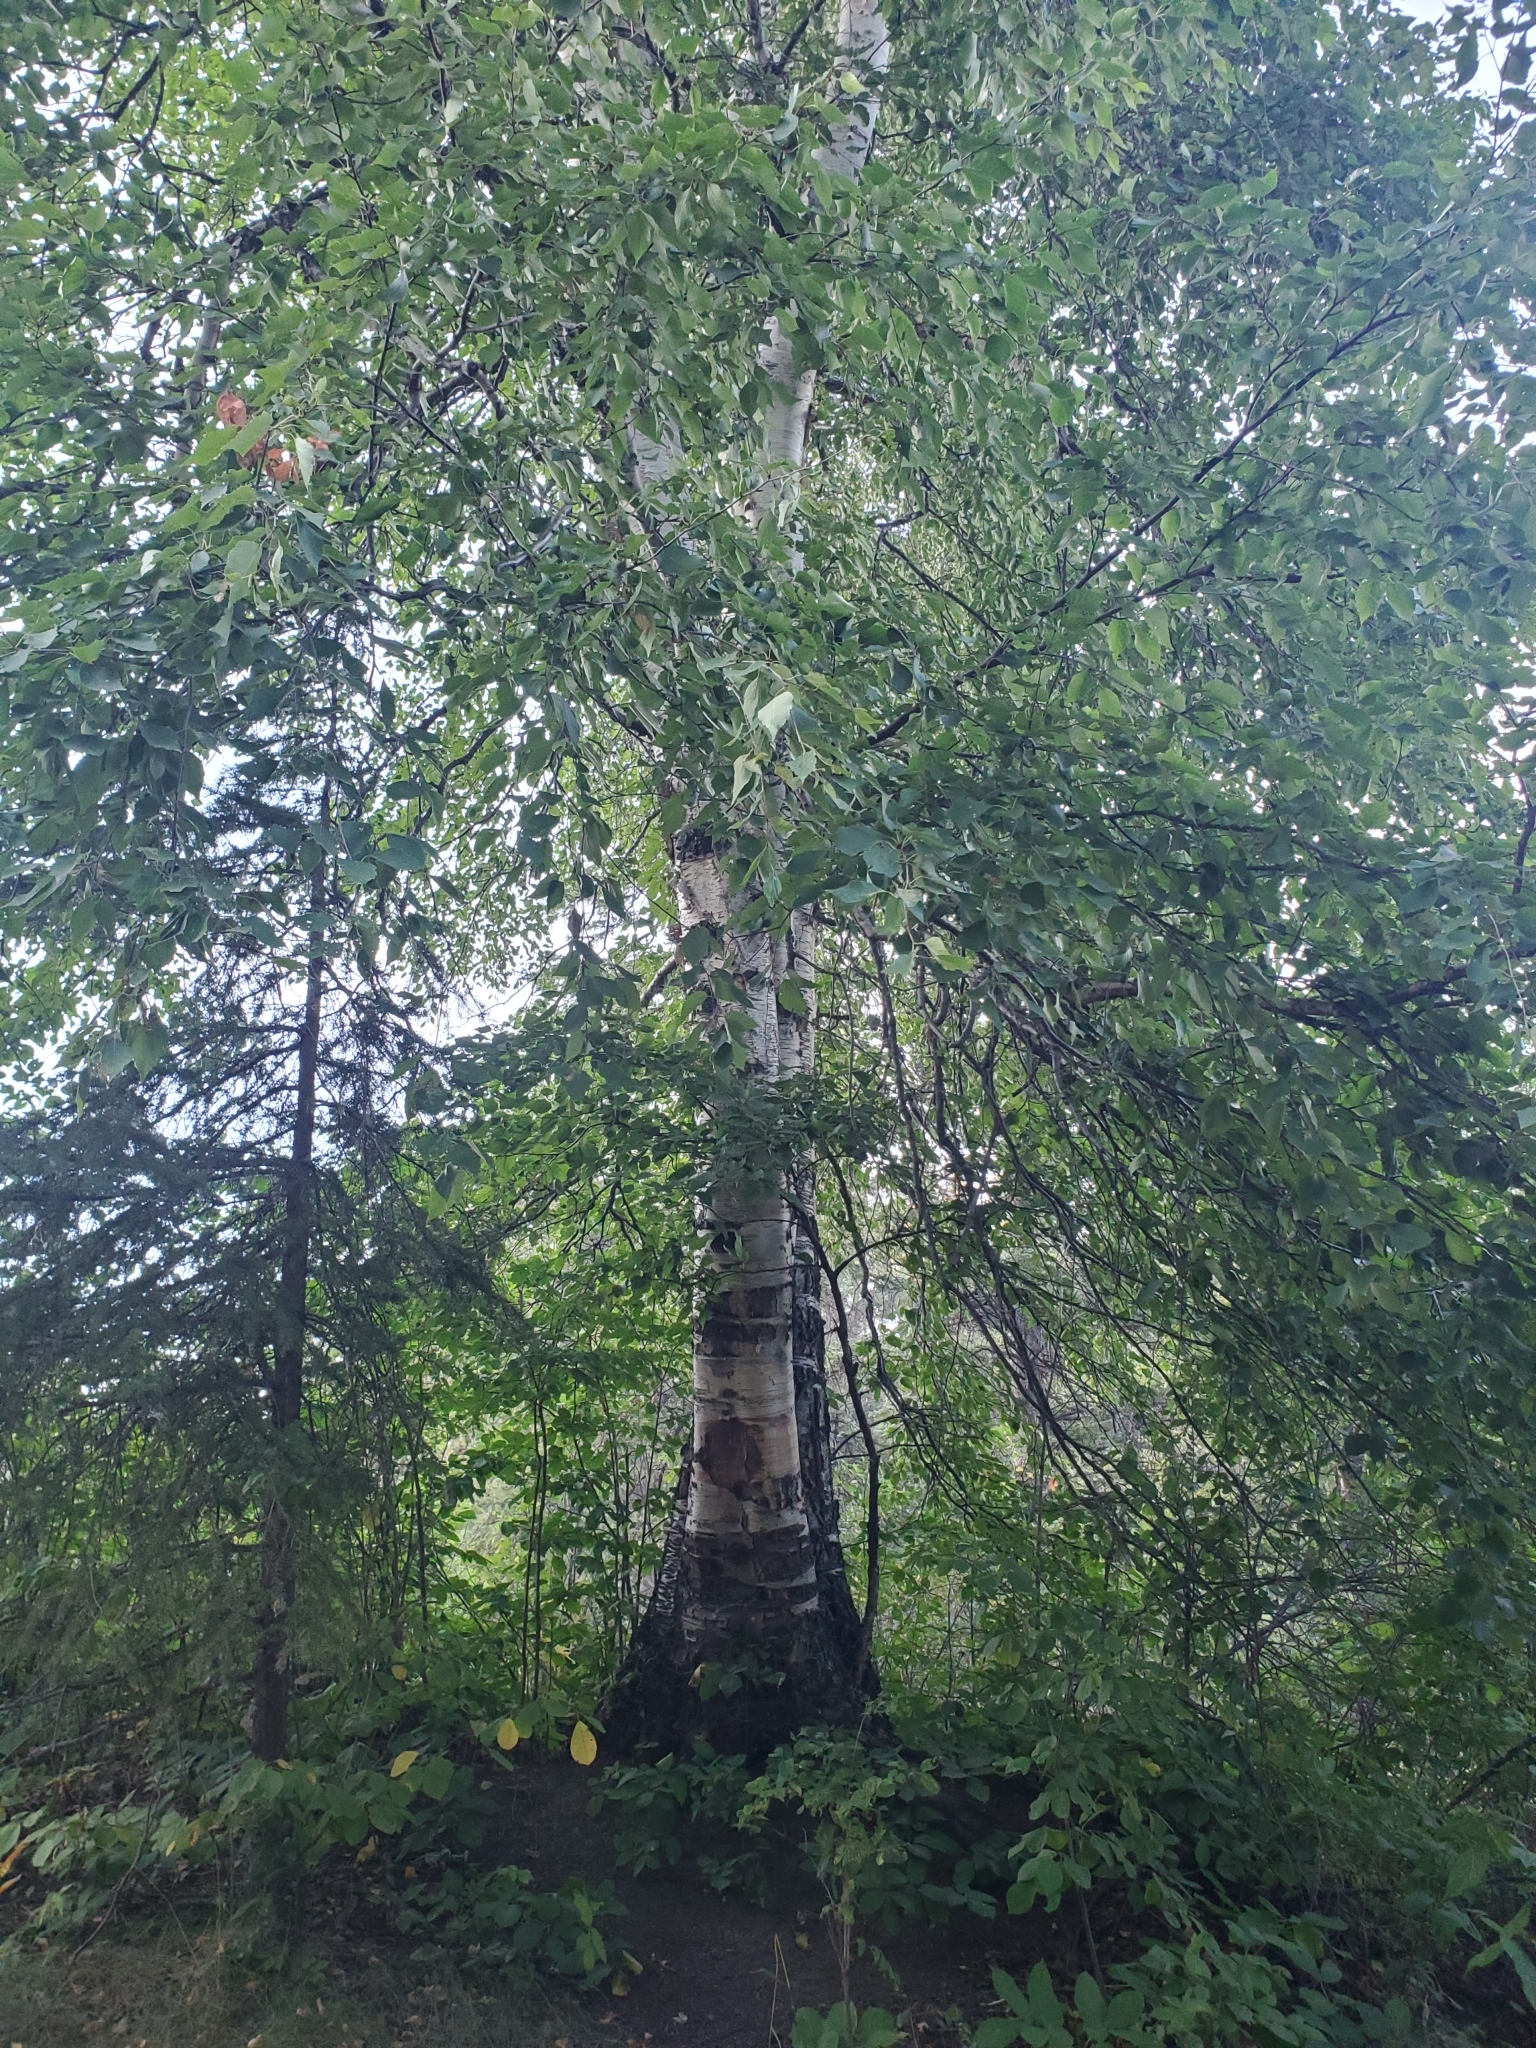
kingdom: Plantae
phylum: Tracheophyta
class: Magnoliopsida
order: Fagales
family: Betulaceae
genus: Betula
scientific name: Betula papyrifera
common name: Paper birch
